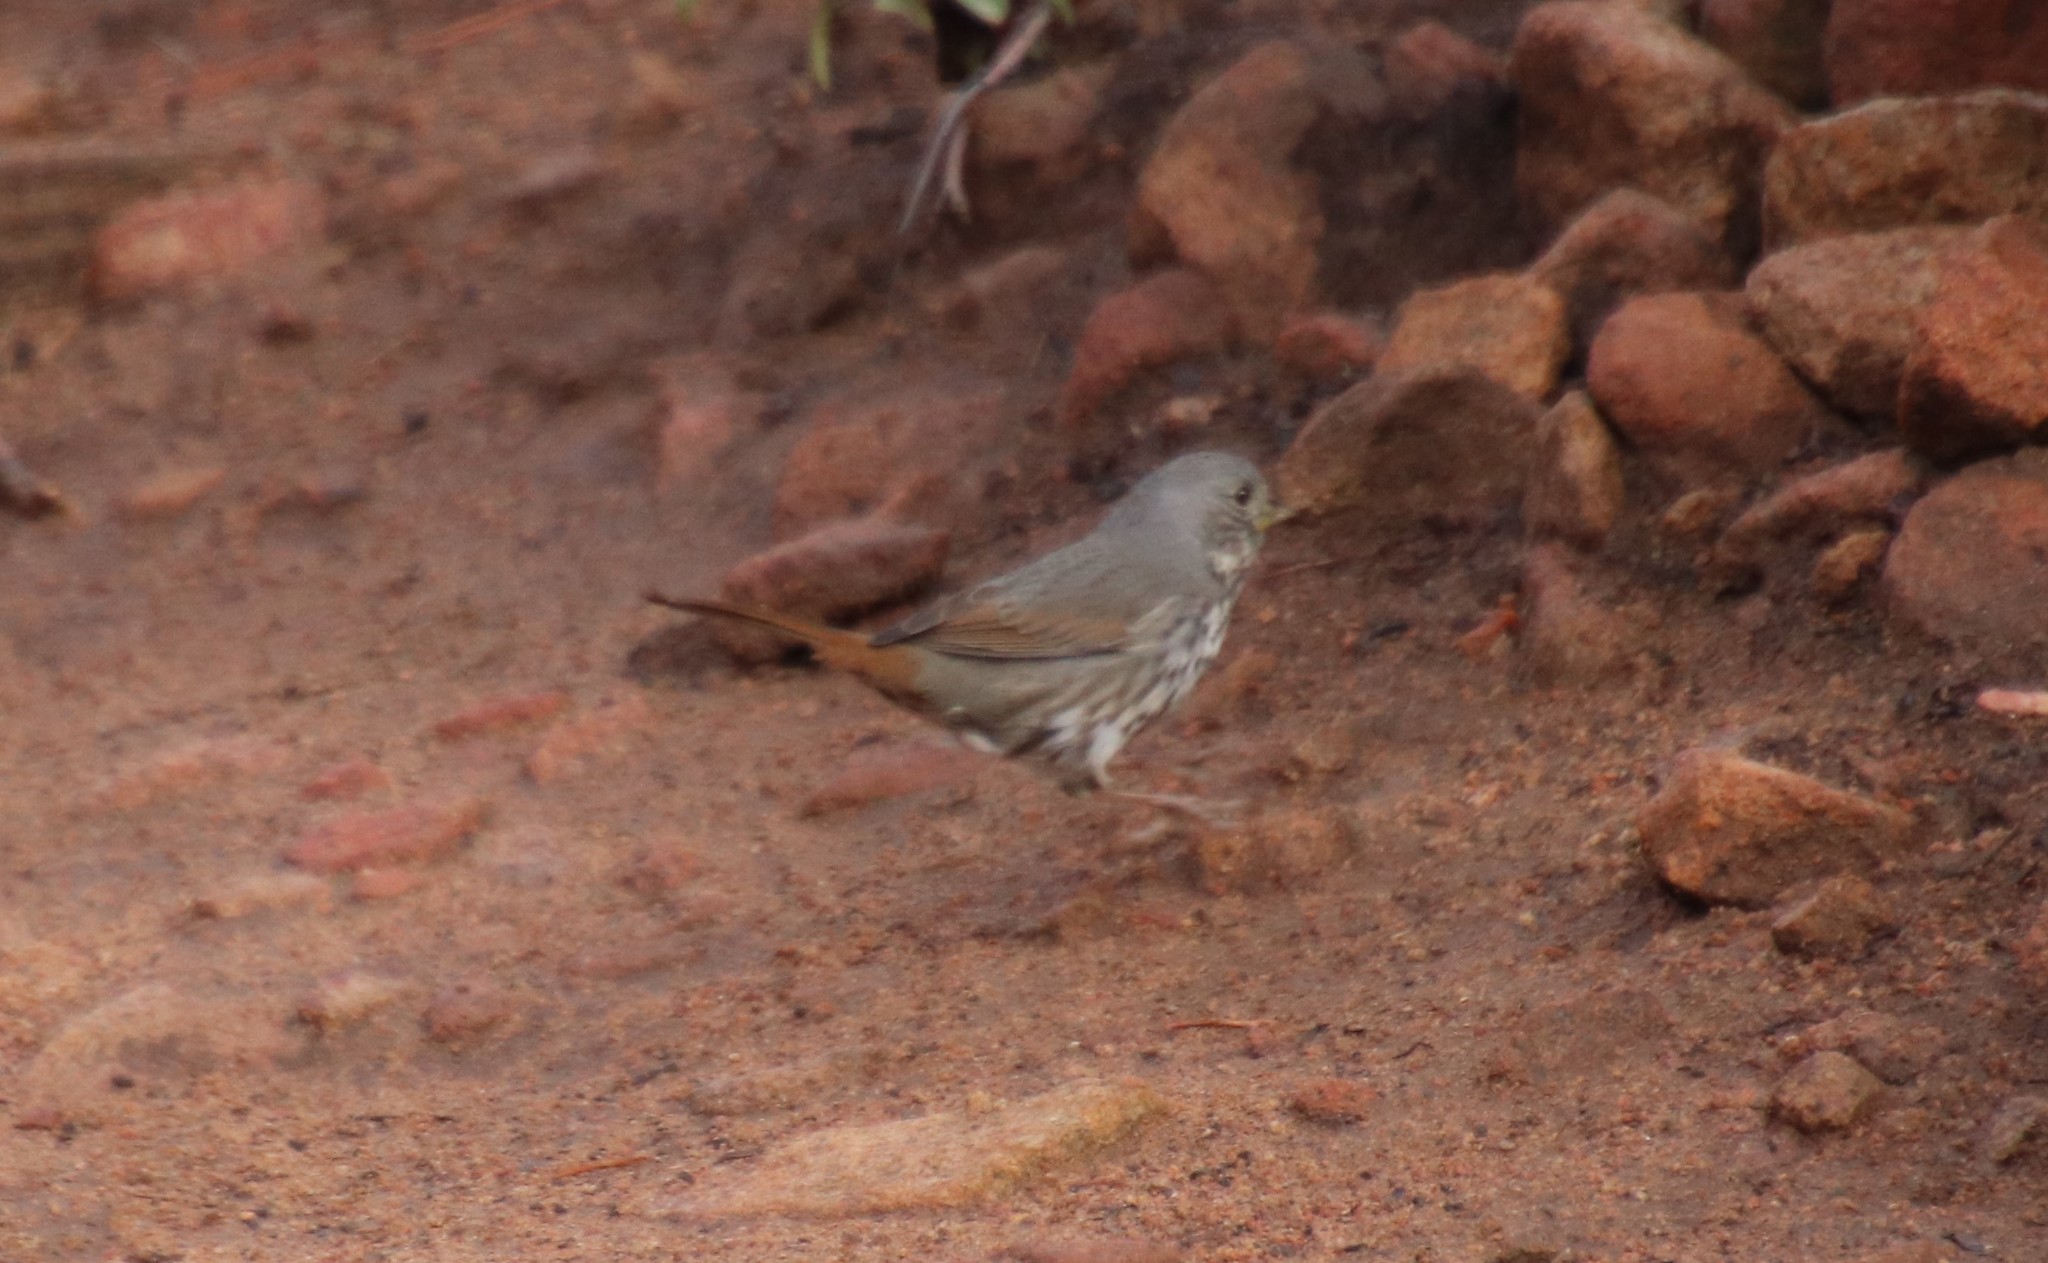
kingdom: Animalia
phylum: Chordata
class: Aves
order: Passeriformes
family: Passerellidae
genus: Passerella
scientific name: Passerella iliaca
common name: Fox sparrow
